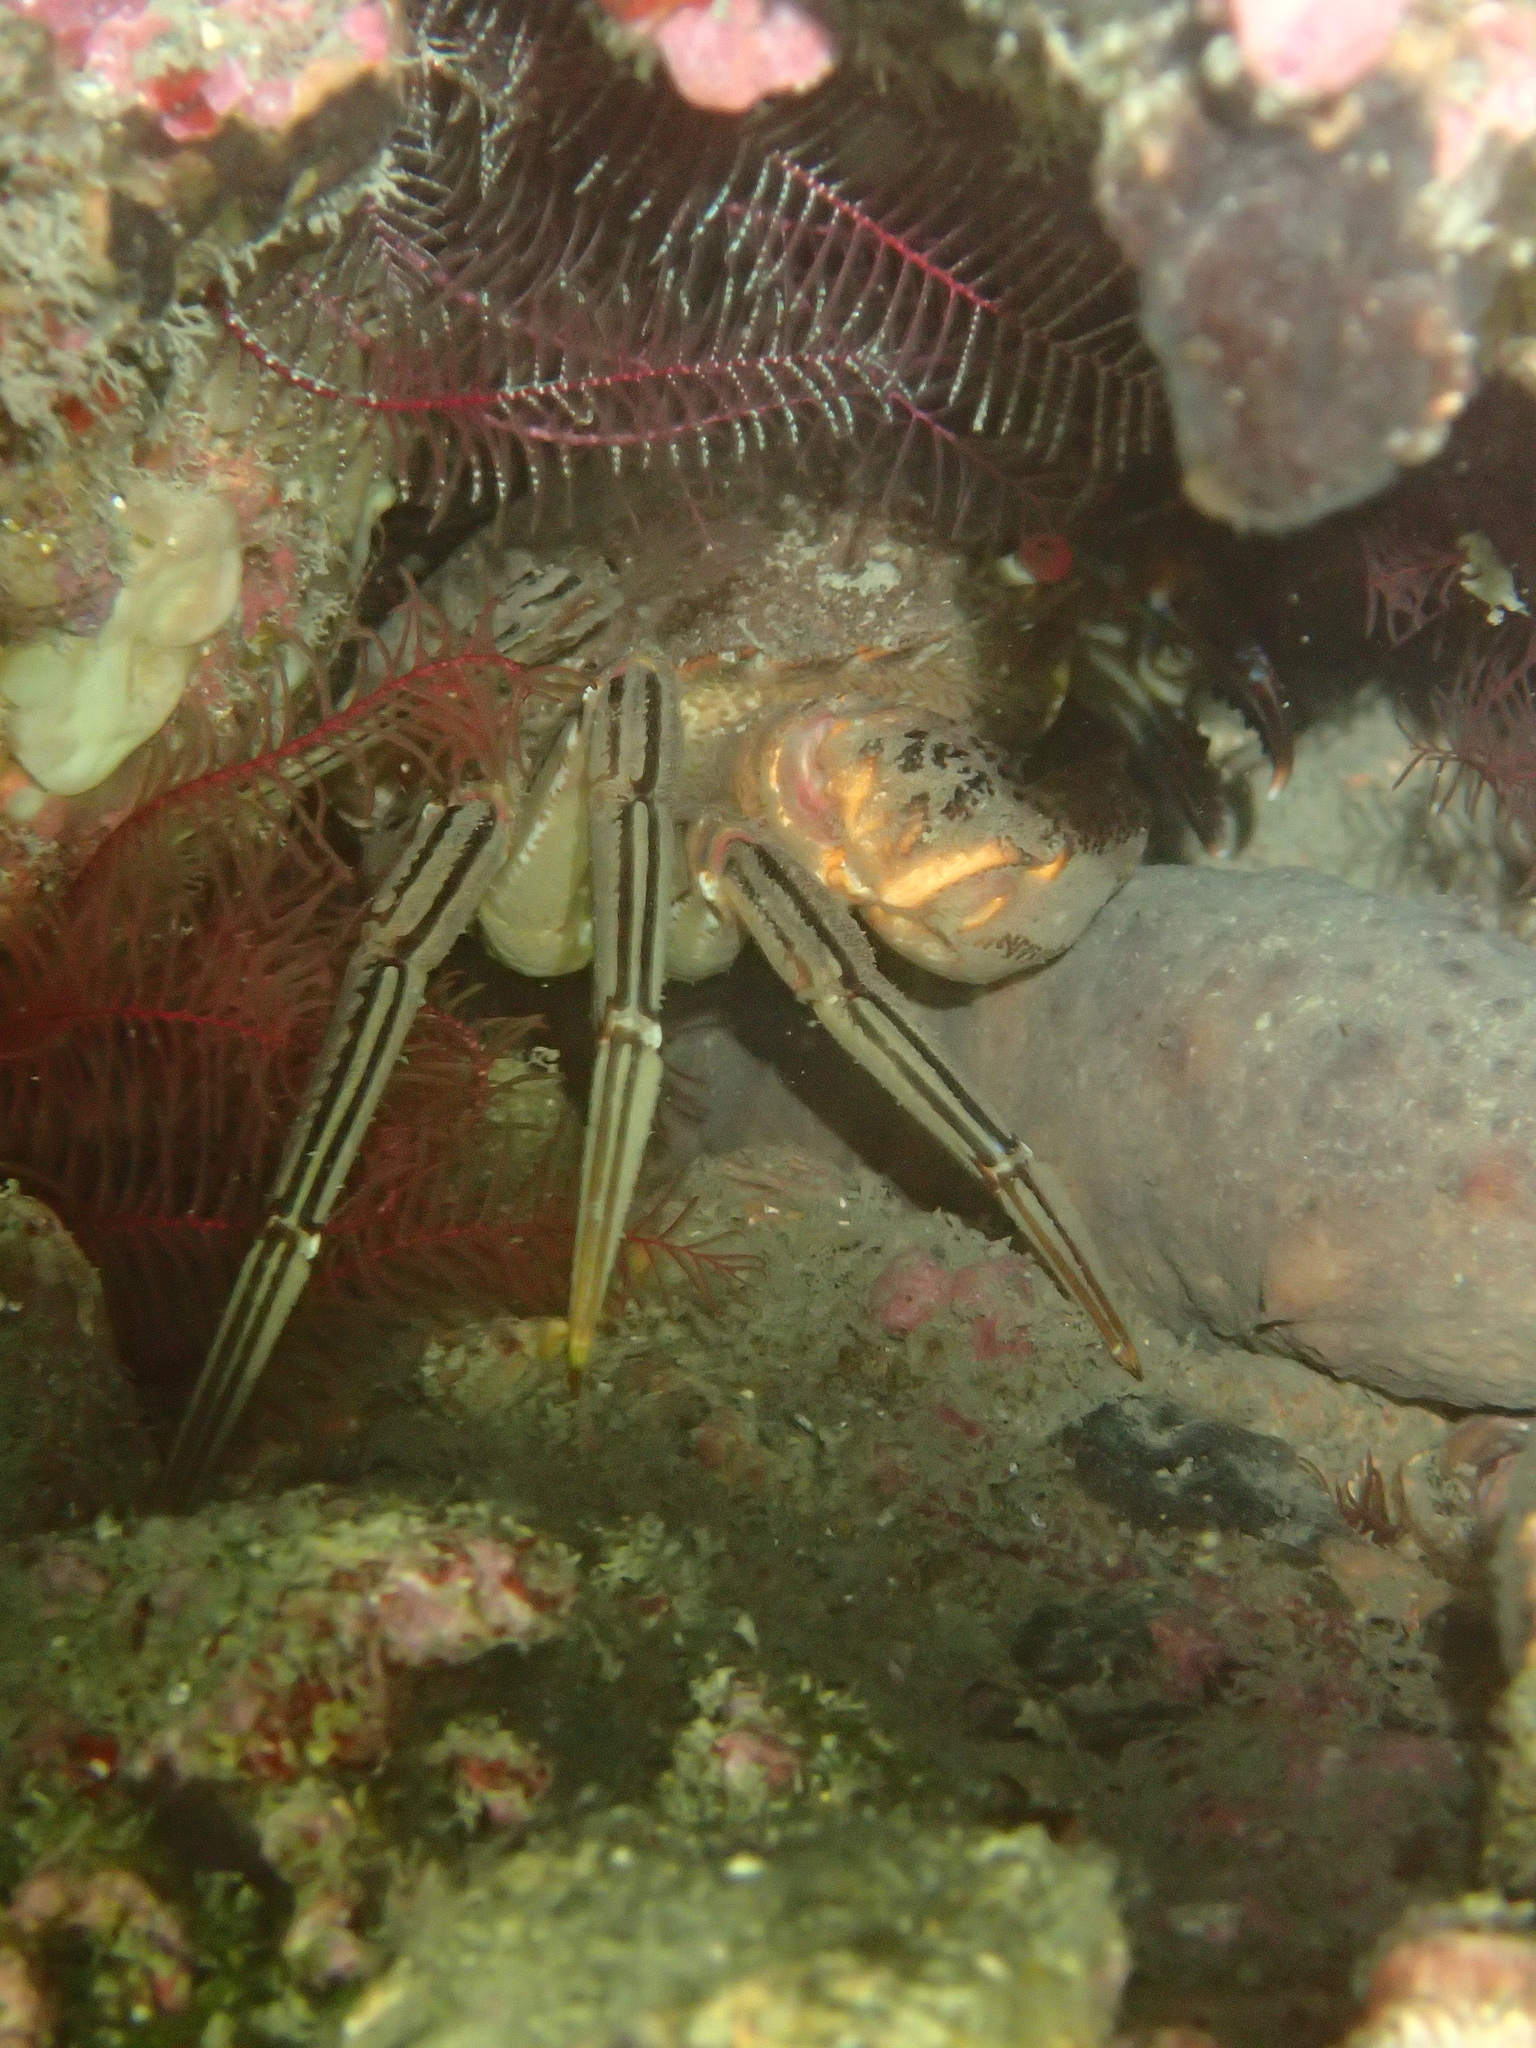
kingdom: Animalia
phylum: Arthropoda
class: Malacostraca
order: Decapoda
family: Polybiidae
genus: Necora
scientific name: Necora puber
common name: Velvet swimming crab
